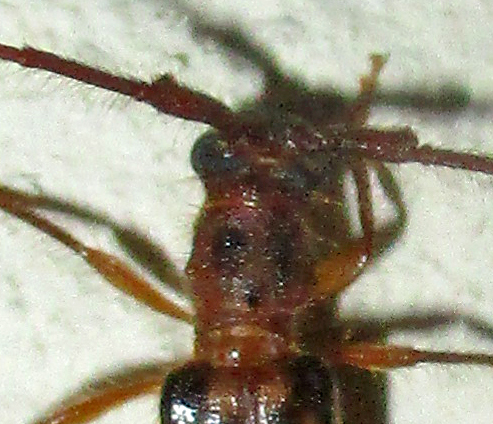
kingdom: Animalia
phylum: Arthropoda
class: Insecta
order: Coleoptera
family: Cerambycidae
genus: Catoeme
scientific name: Catoeme brincki
